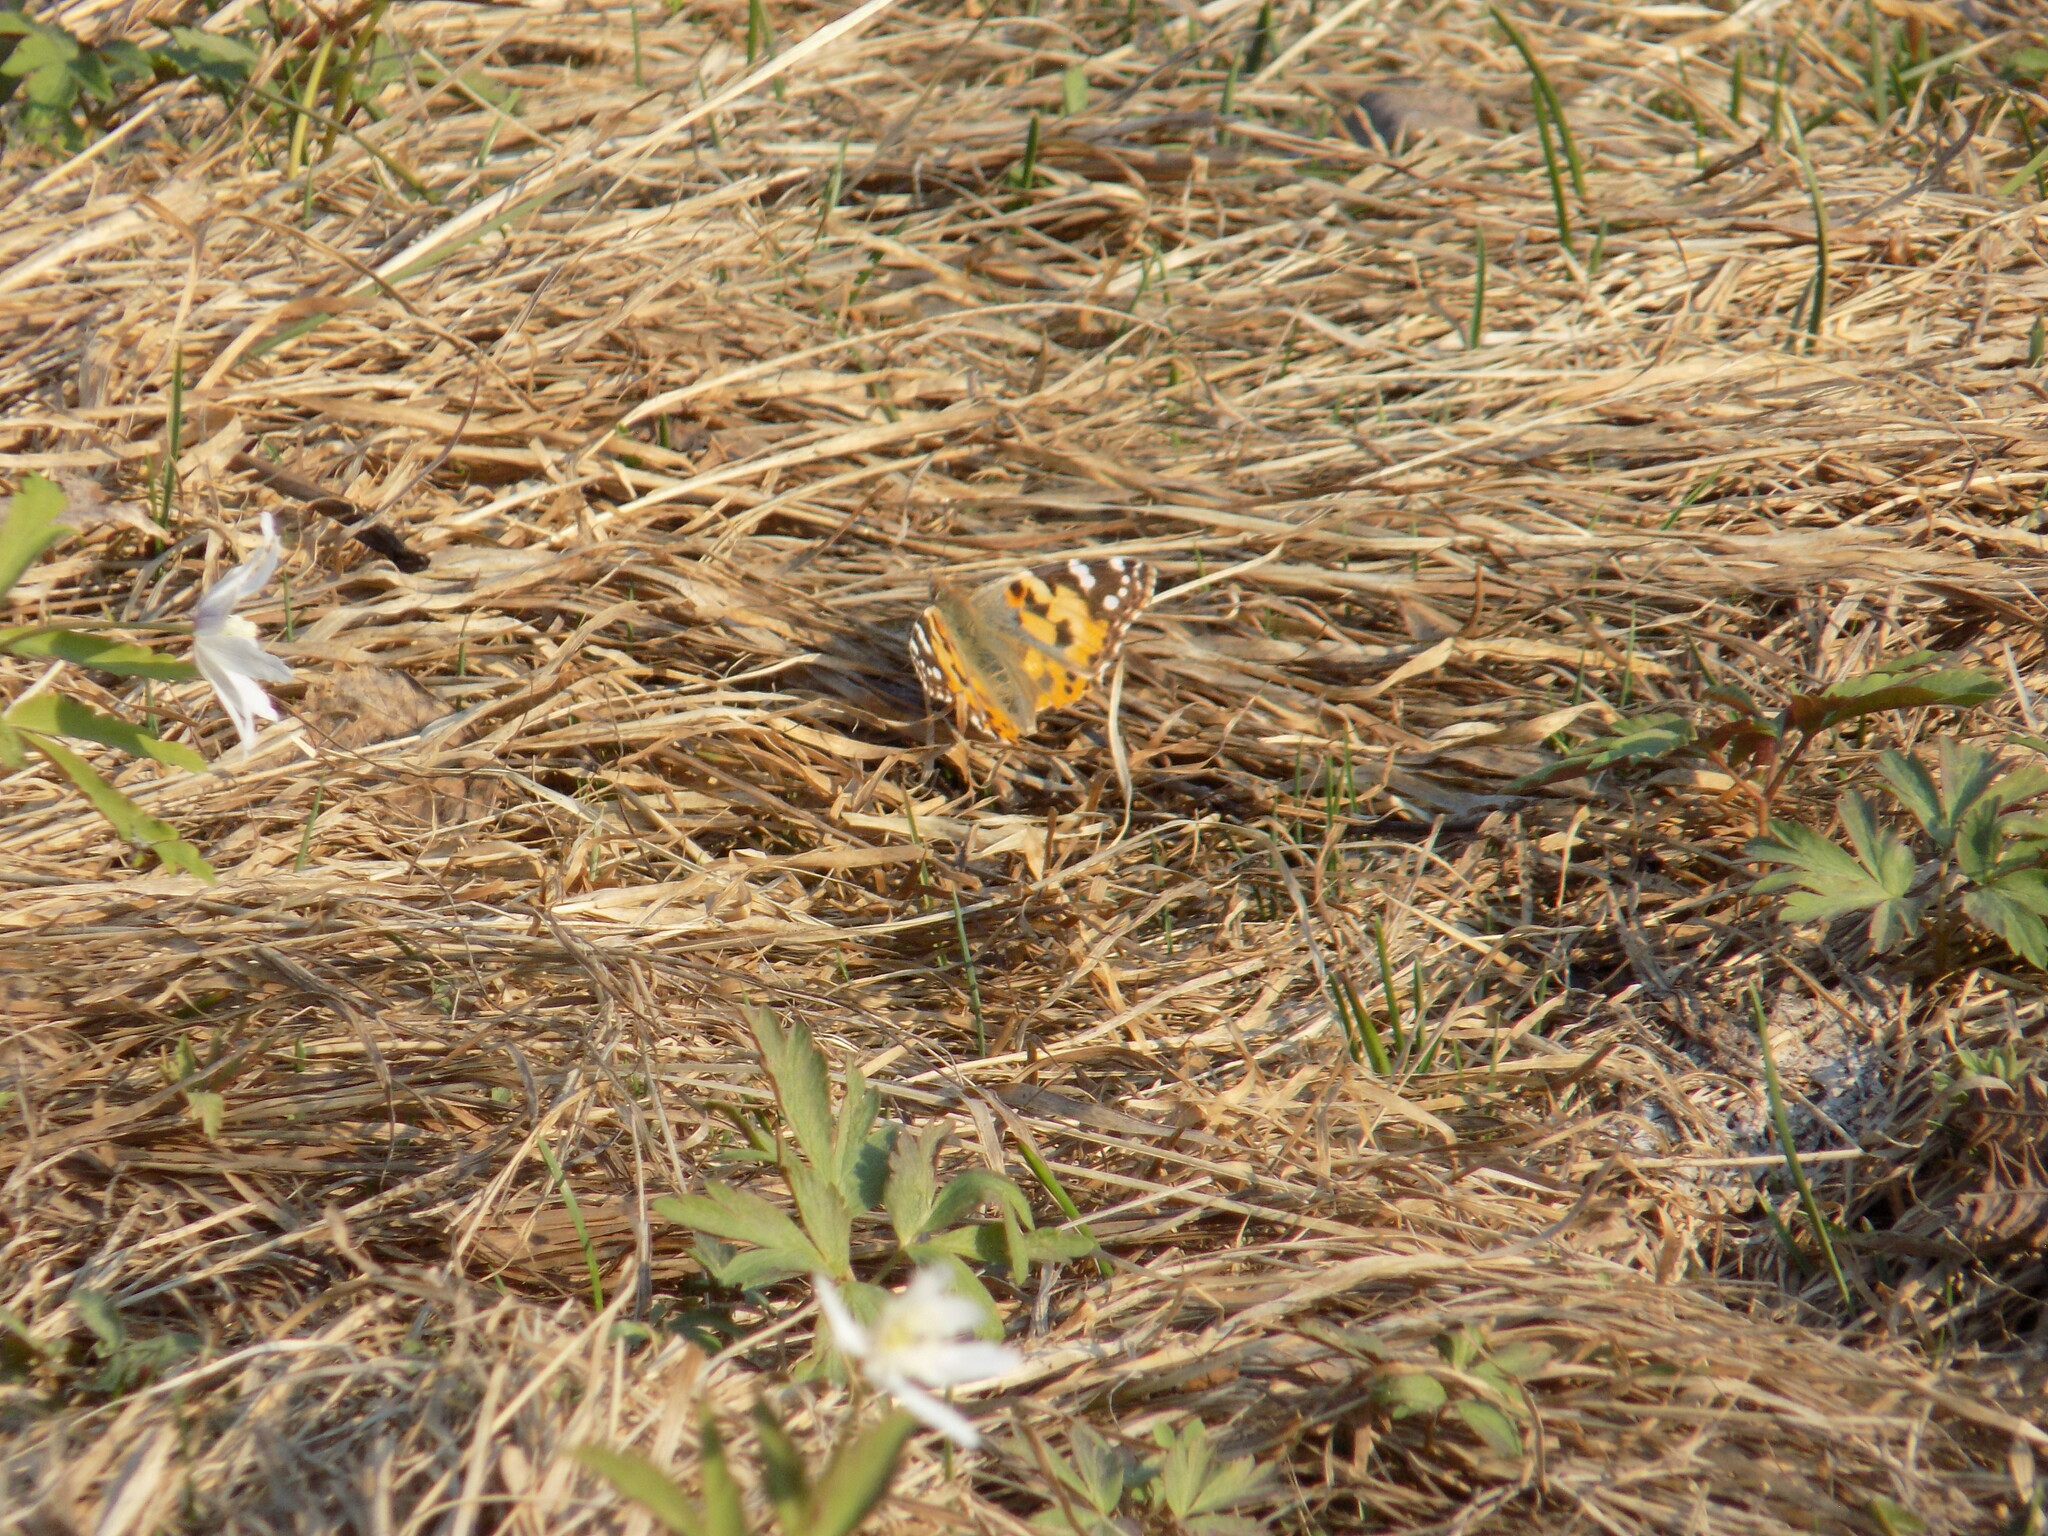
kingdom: Animalia
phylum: Arthropoda
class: Insecta
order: Lepidoptera
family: Nymphalidae
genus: Vanessa
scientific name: Vanessa cardui
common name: Painted lady
